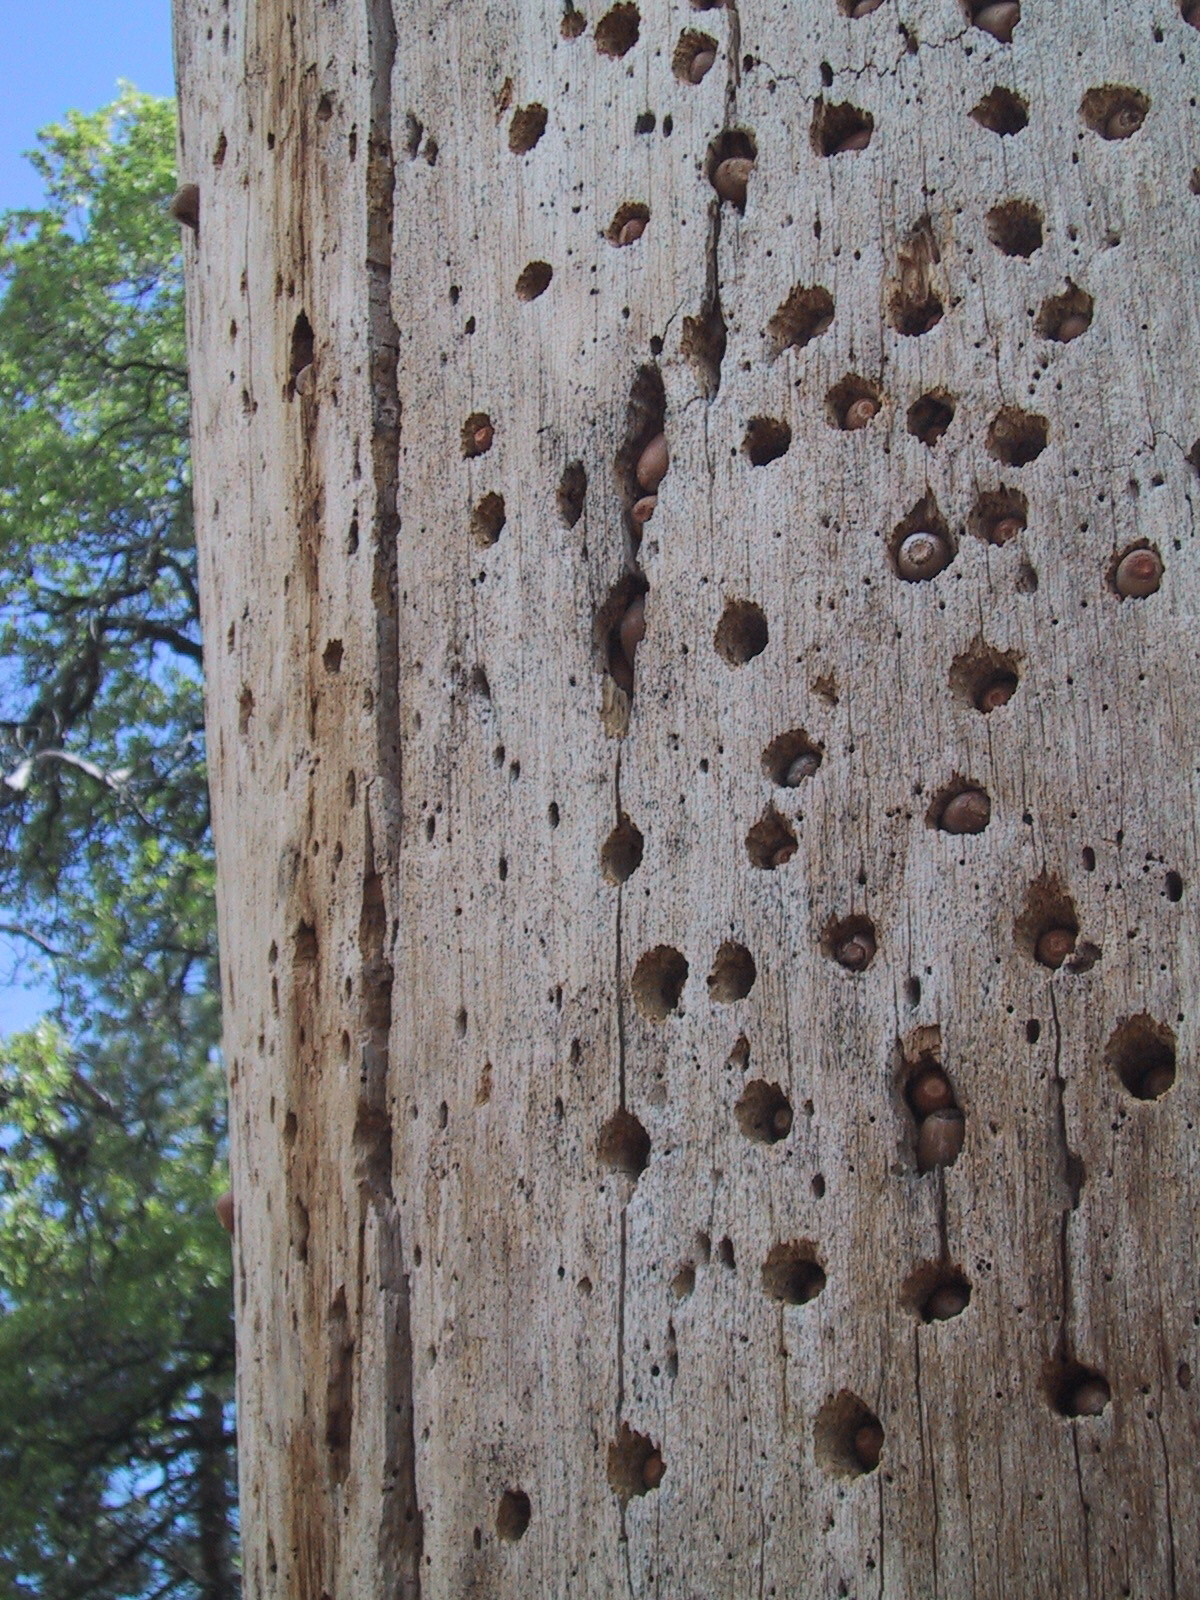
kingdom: Animalia
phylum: Chordata
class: Aves
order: Piciformes
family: Picidae
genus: Melanerpes
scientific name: Melanerpes formicivorus
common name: Acorn woodpecker
